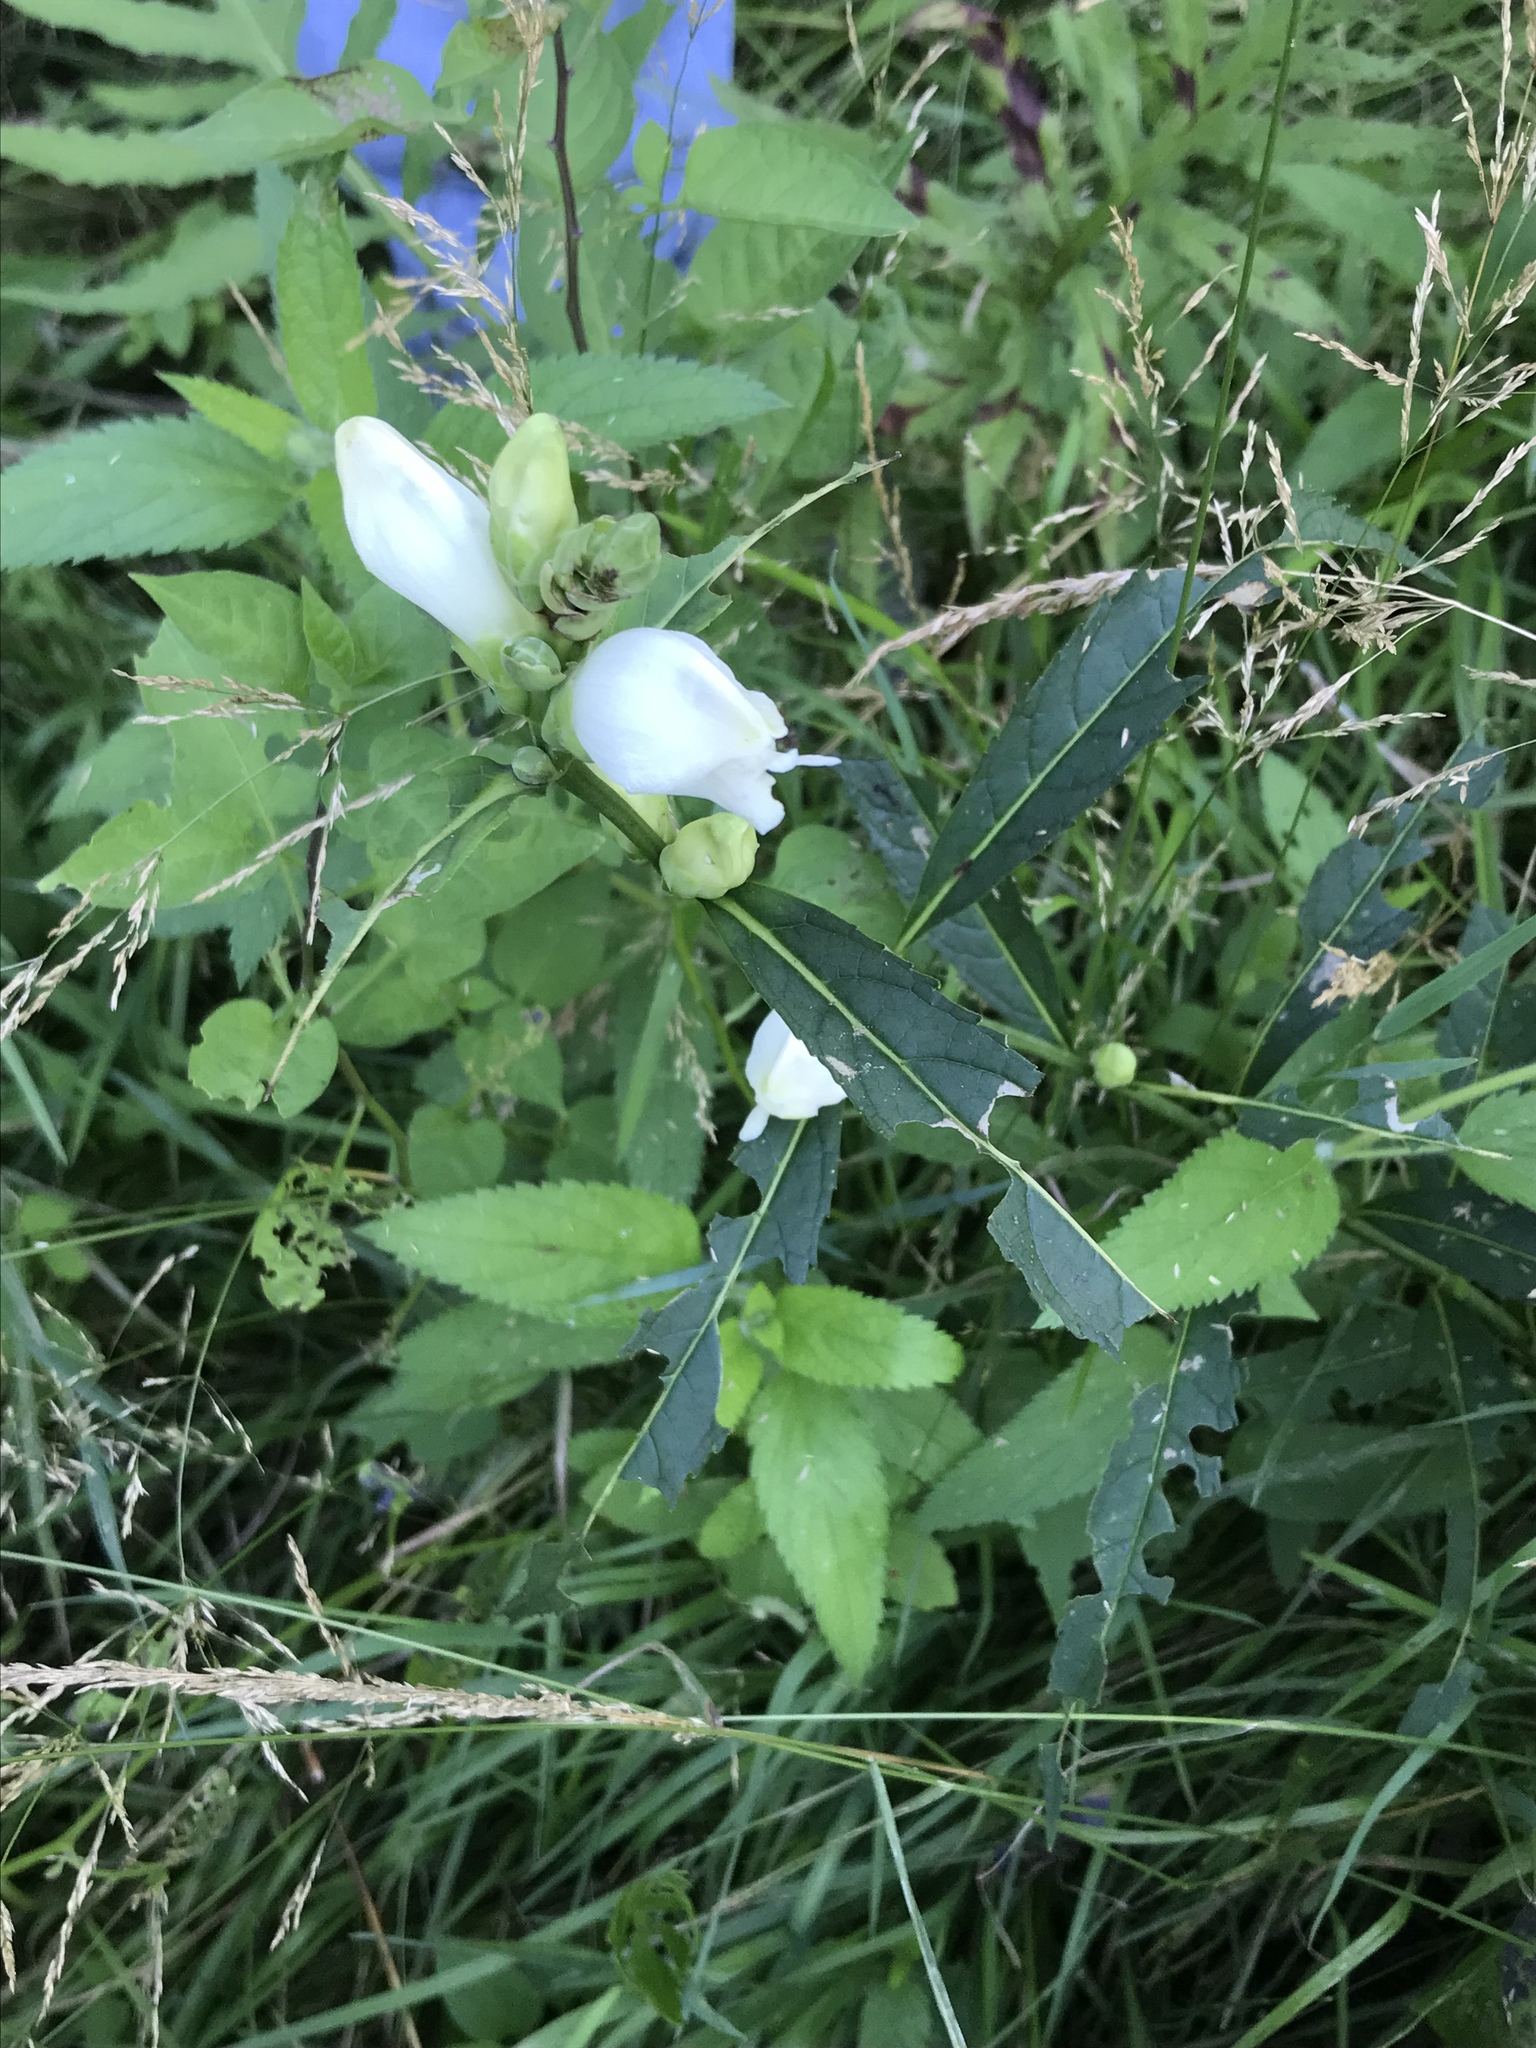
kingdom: Plantae
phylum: Tracheophyta
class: Magnoliopsida
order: Lamiales
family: Plantaginaceae
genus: Chelone
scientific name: Chelone glabra
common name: Snakehead
